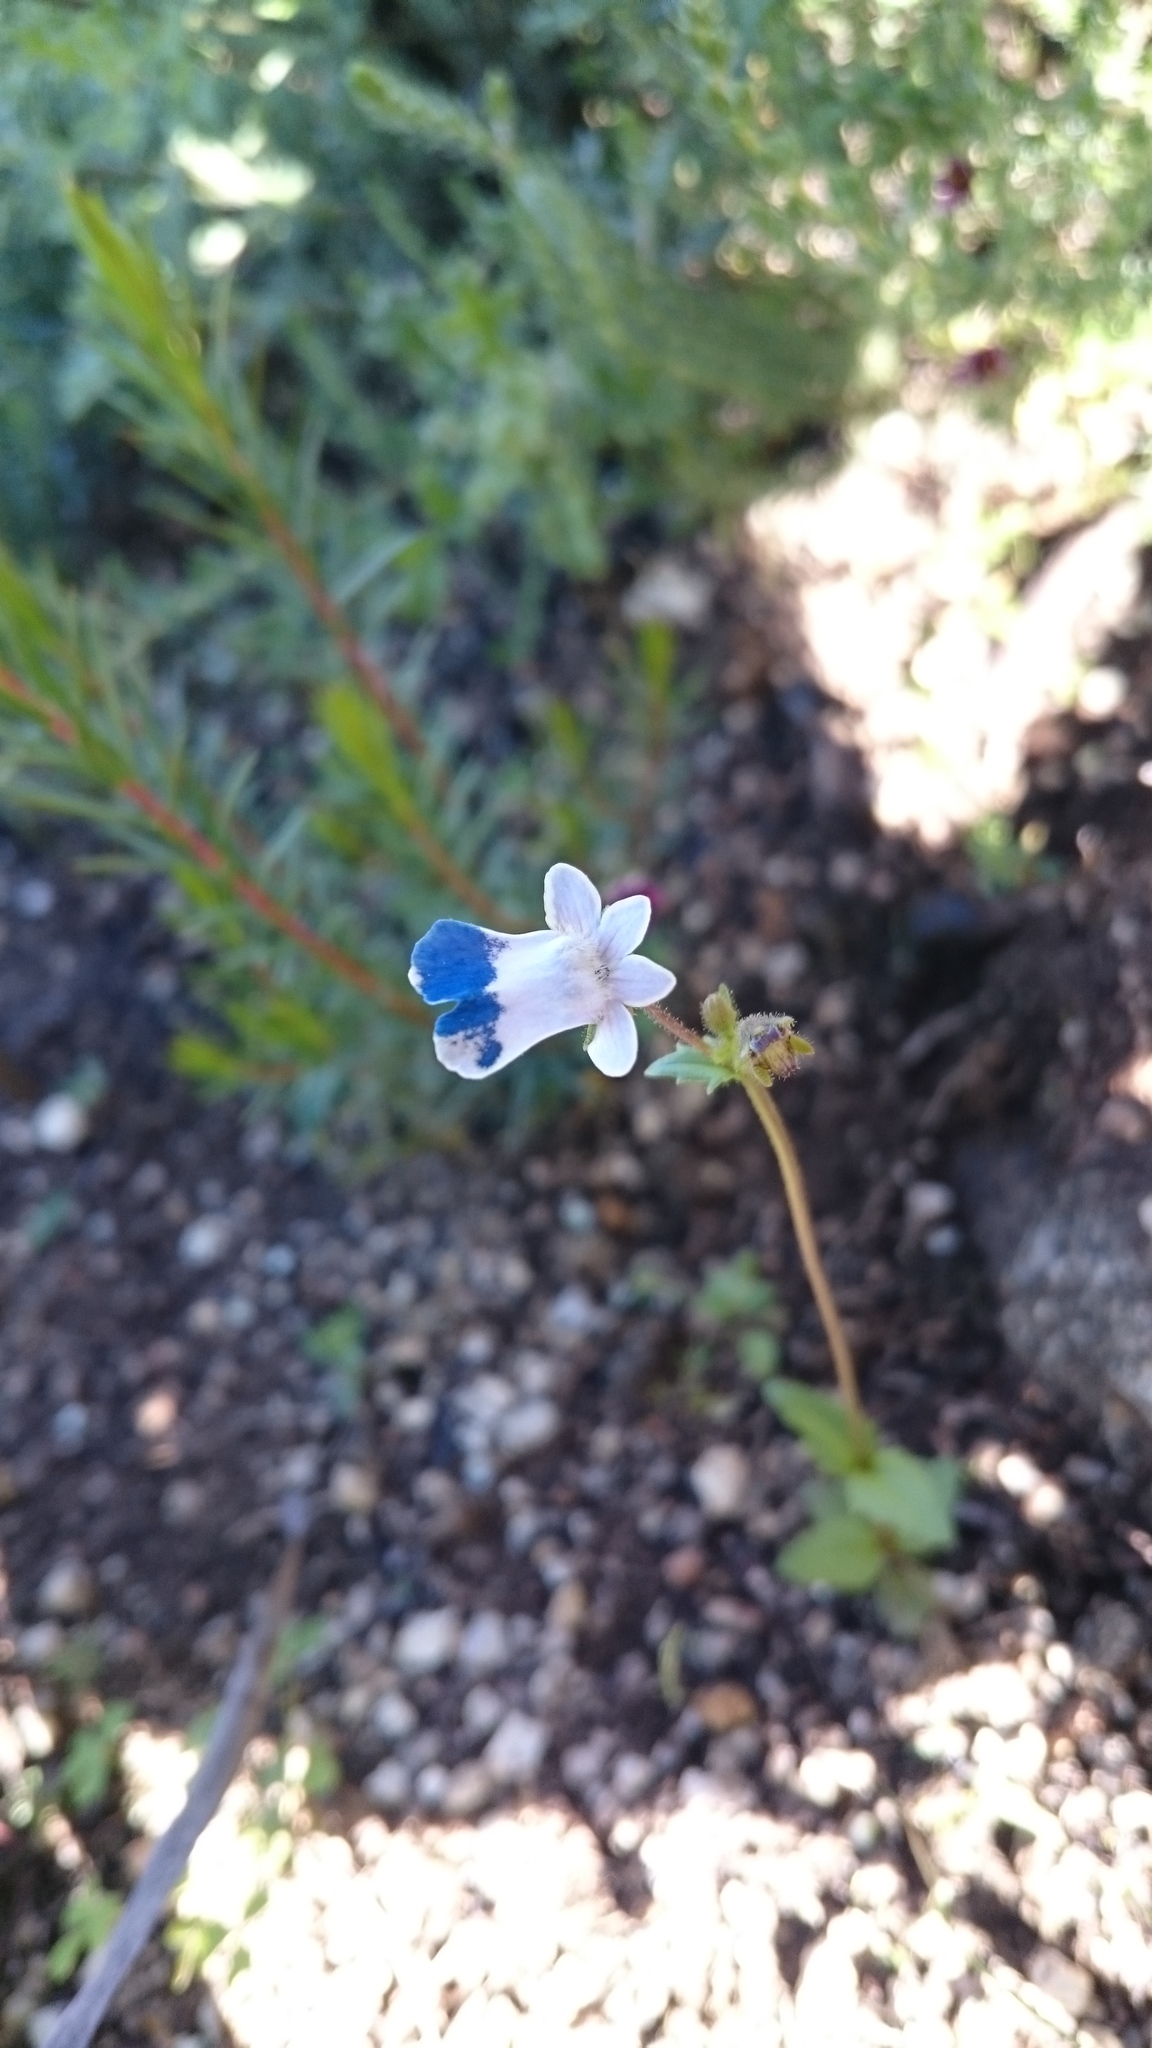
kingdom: Plantae
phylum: Tracheophyta
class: Magnoliopsida
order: Lamiales
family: Scrophulariaceae
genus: Nemesia
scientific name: Nemesia barbata
